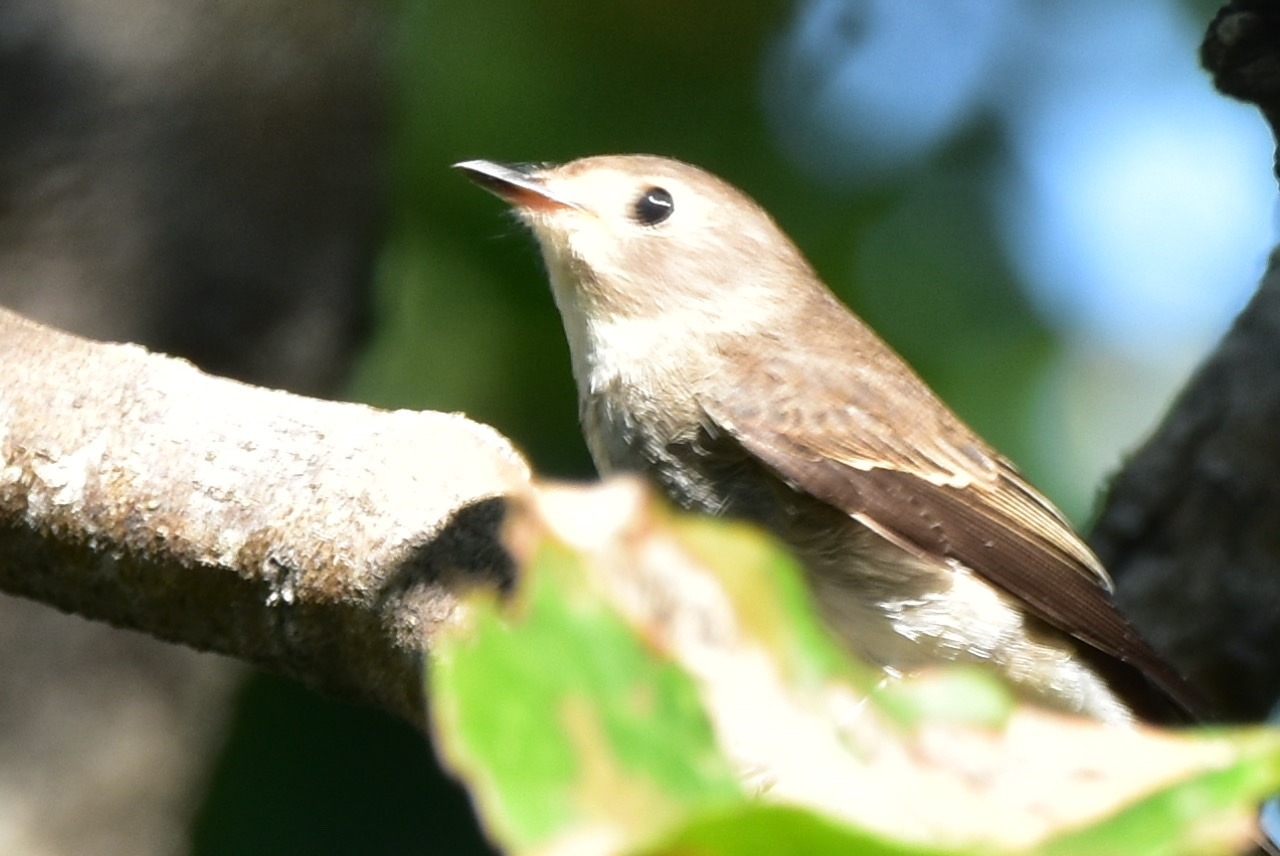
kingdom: Animalia
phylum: Chordata
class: Aves
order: Passeriformes
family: Muscicapidae
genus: Muscicapa
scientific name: Muscicapa latirostris
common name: Asian brown flycatcher
